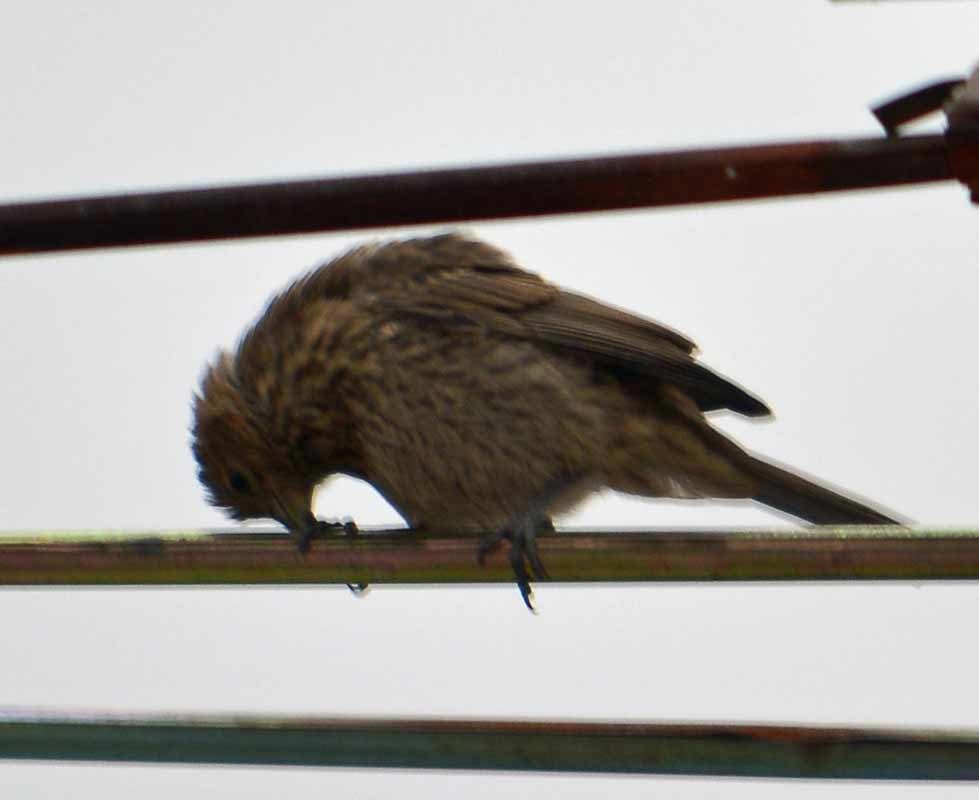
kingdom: Animalia
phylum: Chordata
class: Aves
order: Passeriformes
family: Fringillidae
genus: Haemorhous
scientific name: Haemorhous mexicanus
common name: House finch
